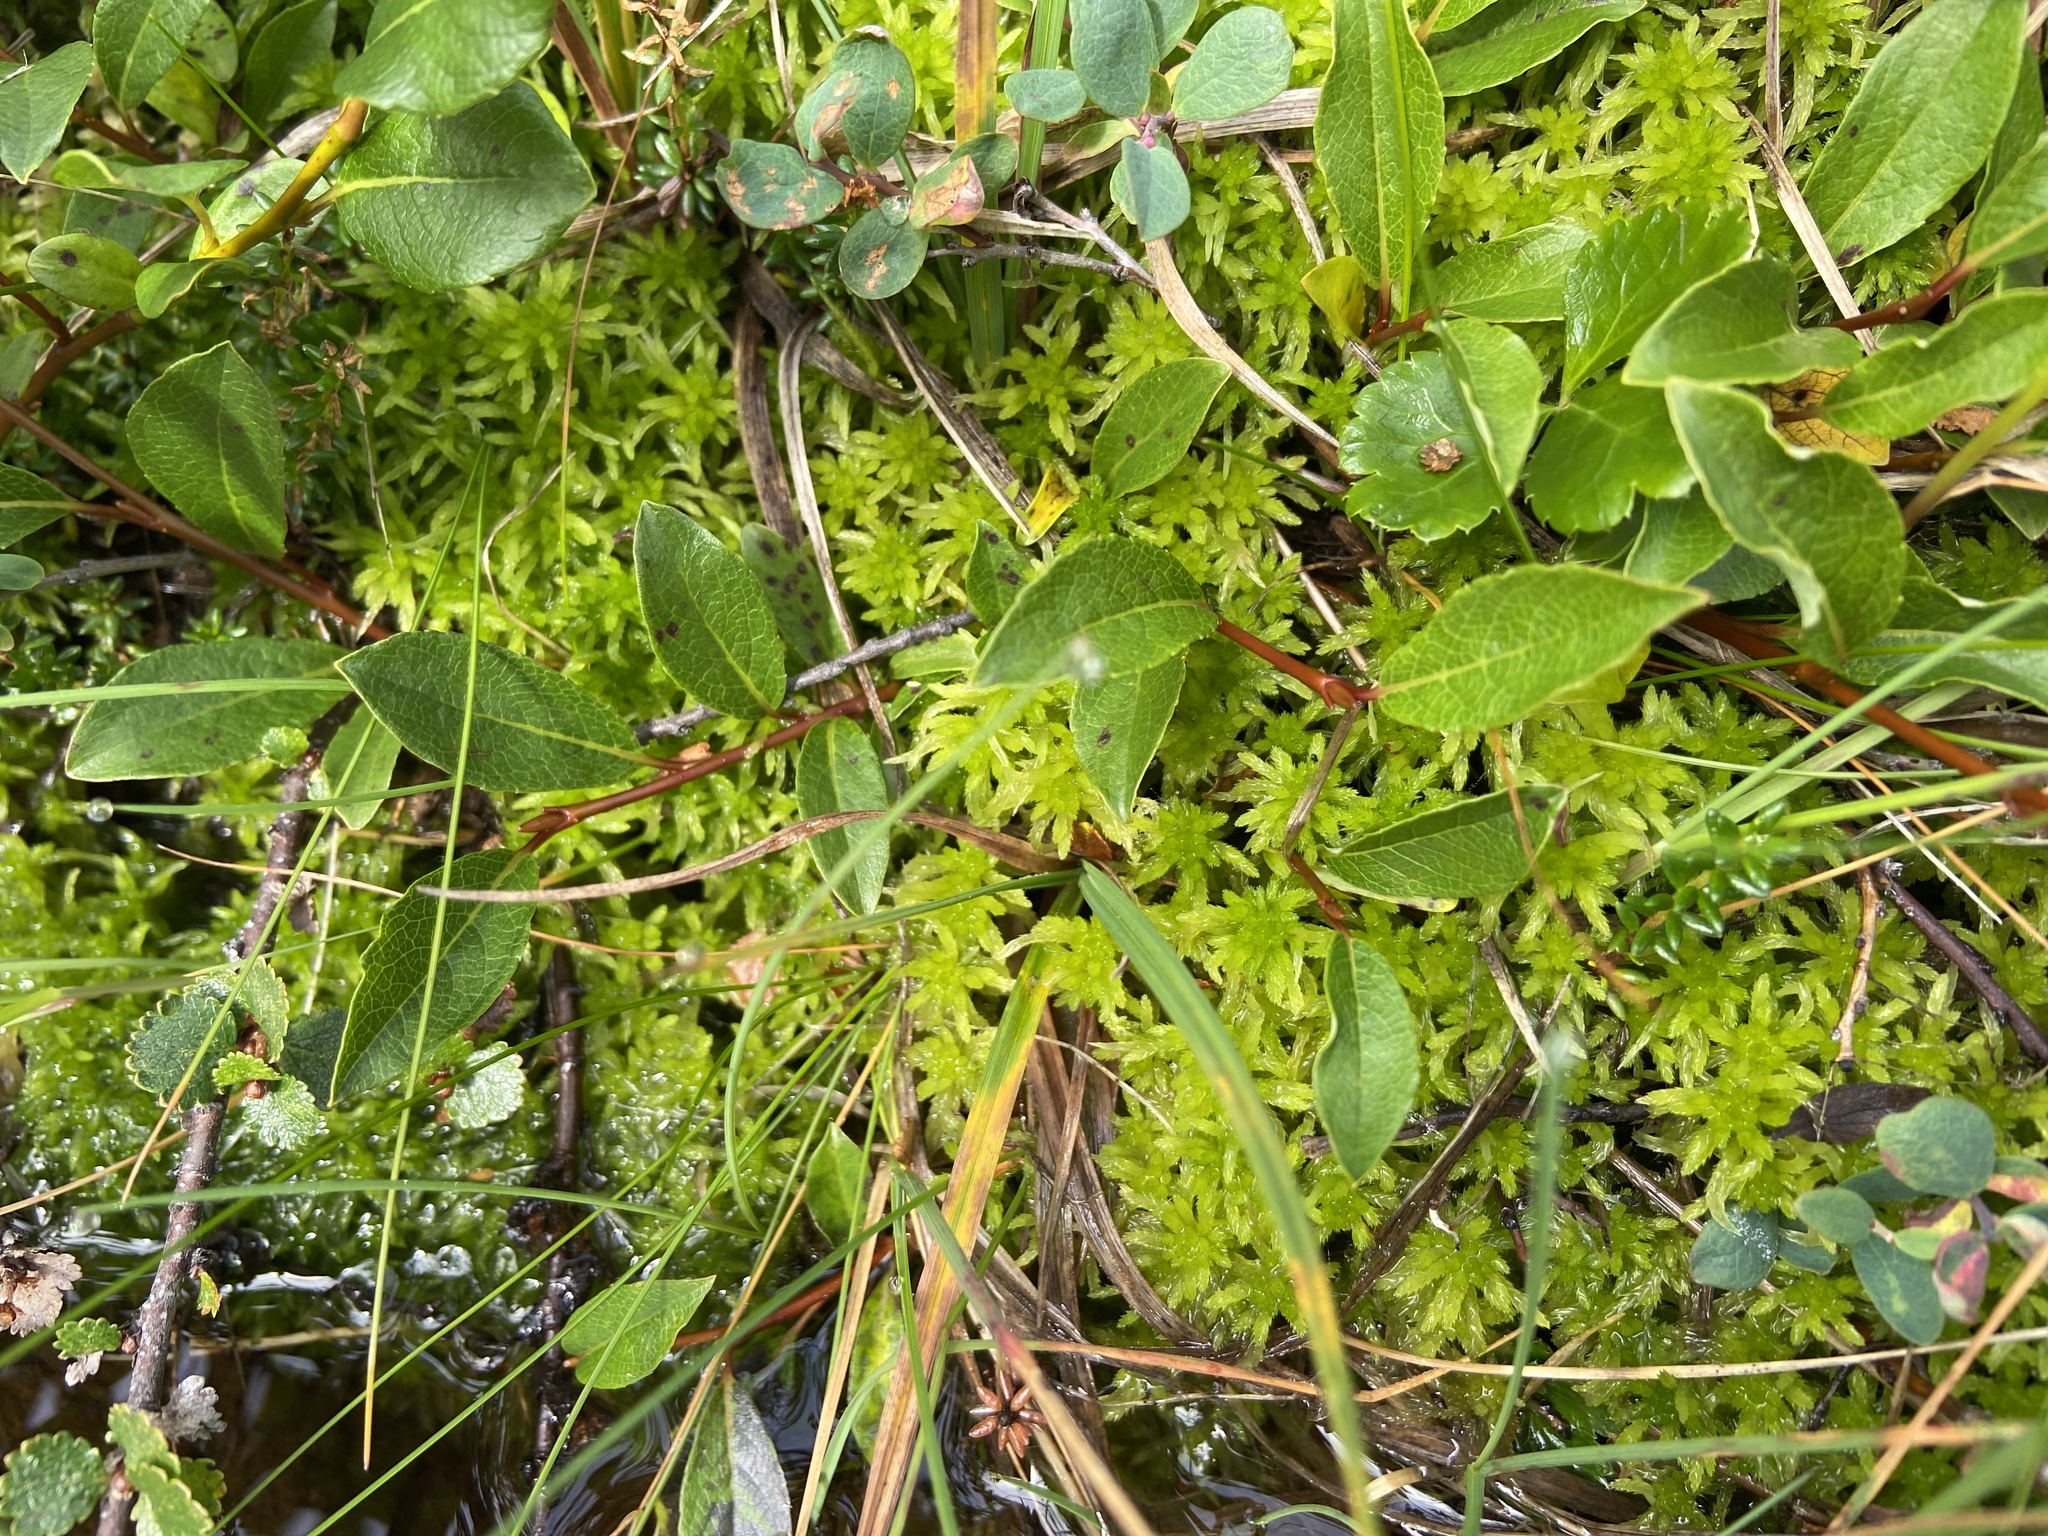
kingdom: Plantae
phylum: Tracheophyta
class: Magnoliopsida
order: Malpighiales
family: Salicaceae
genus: Salix
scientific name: Salix arctophila
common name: Greenland willow
